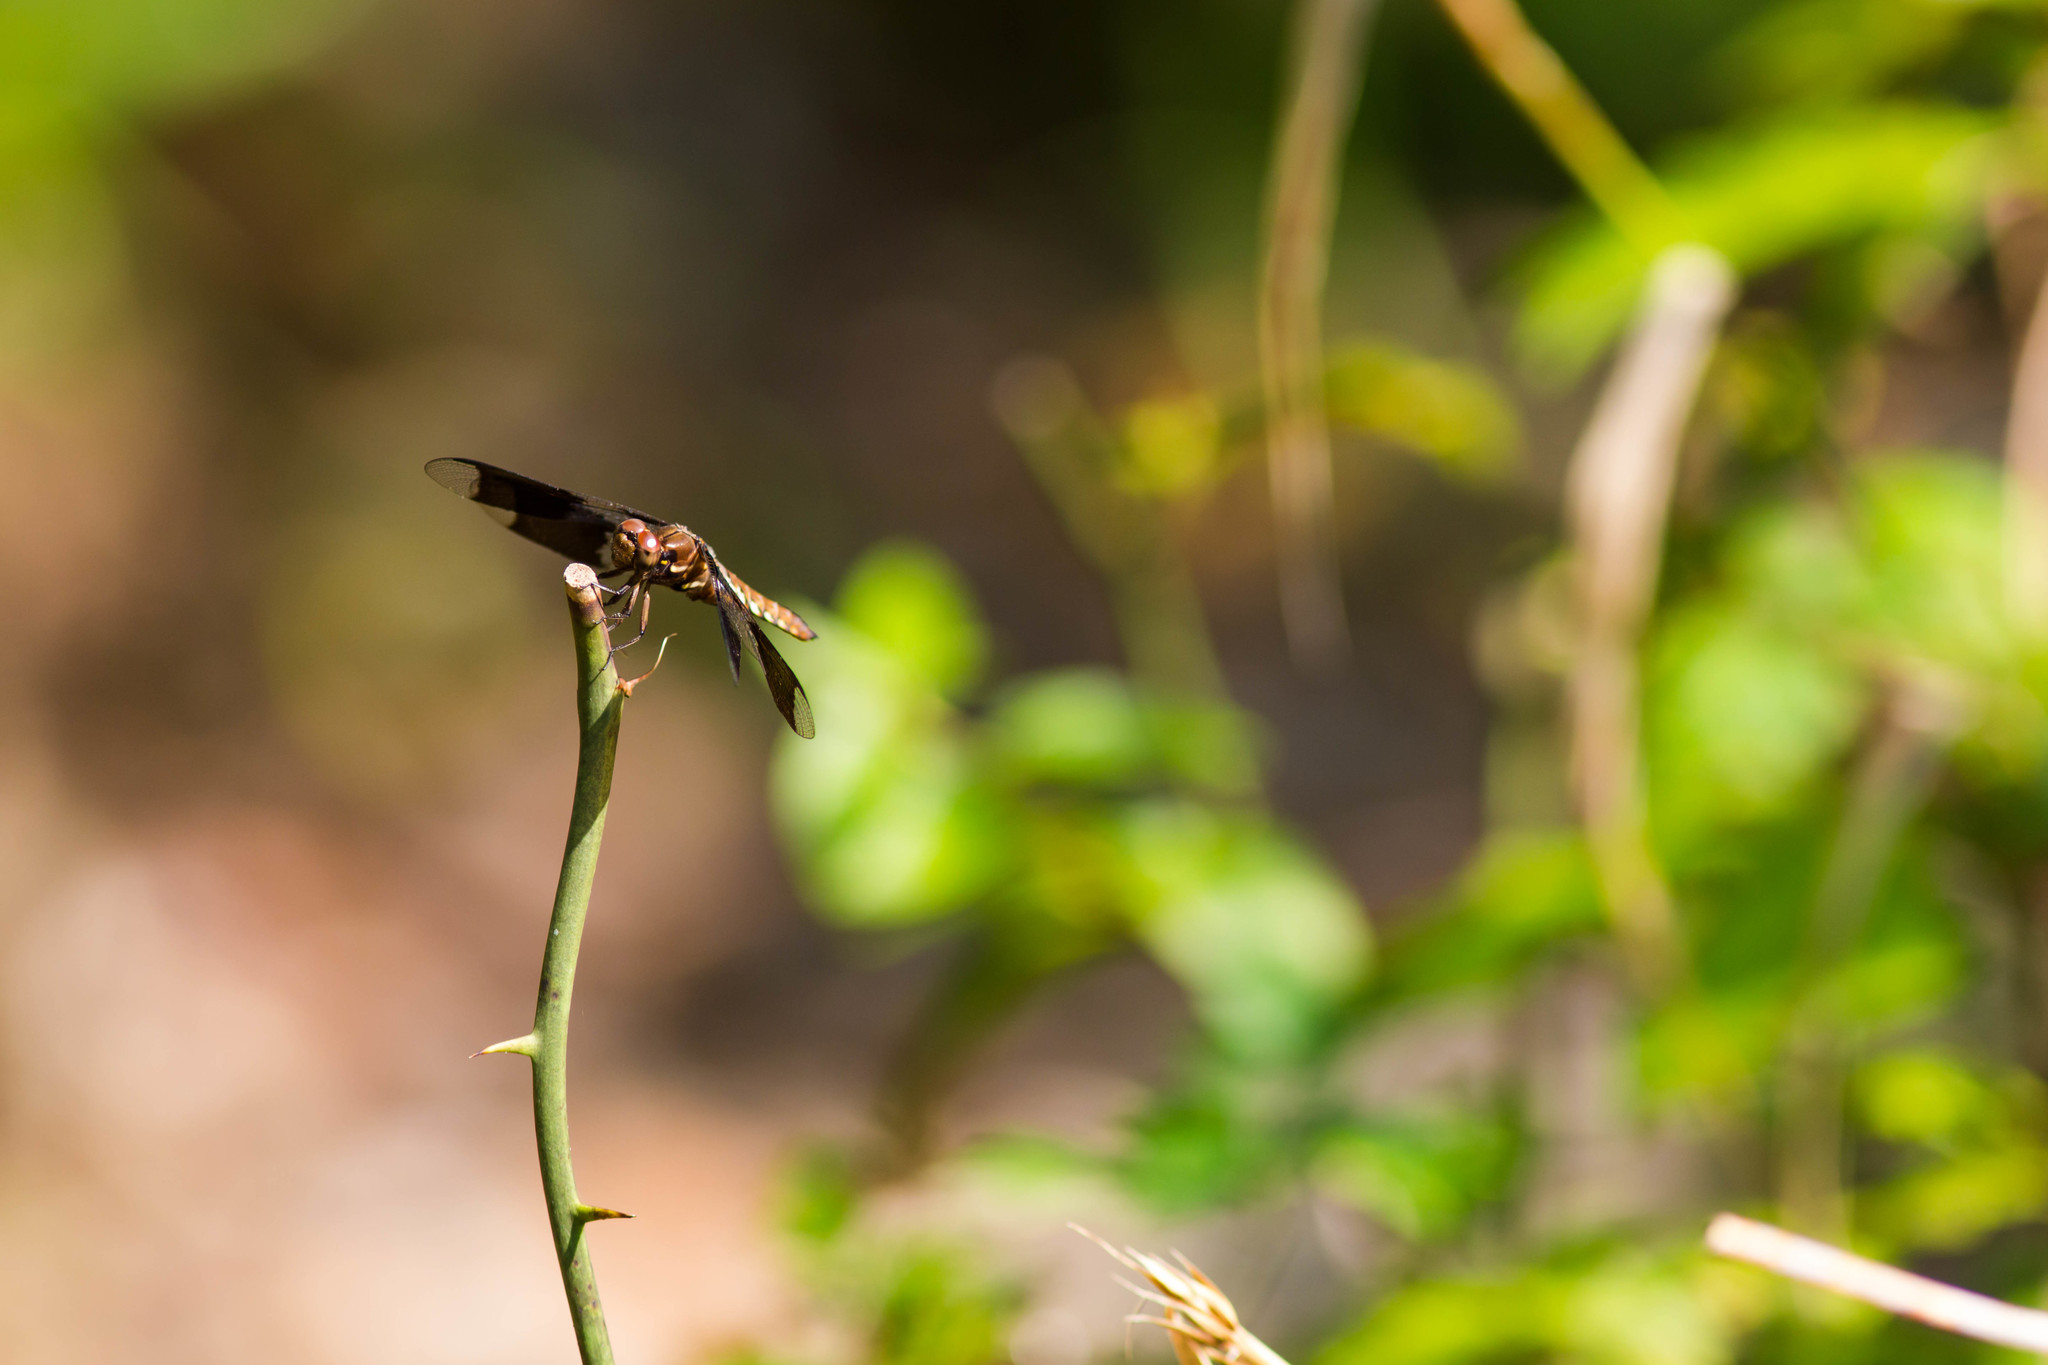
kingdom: Animalia
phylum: Arthropoda
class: Insecta
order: Odonata
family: Libellulidae
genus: Plathemis
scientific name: Plathemis lydia
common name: Common whitetail
